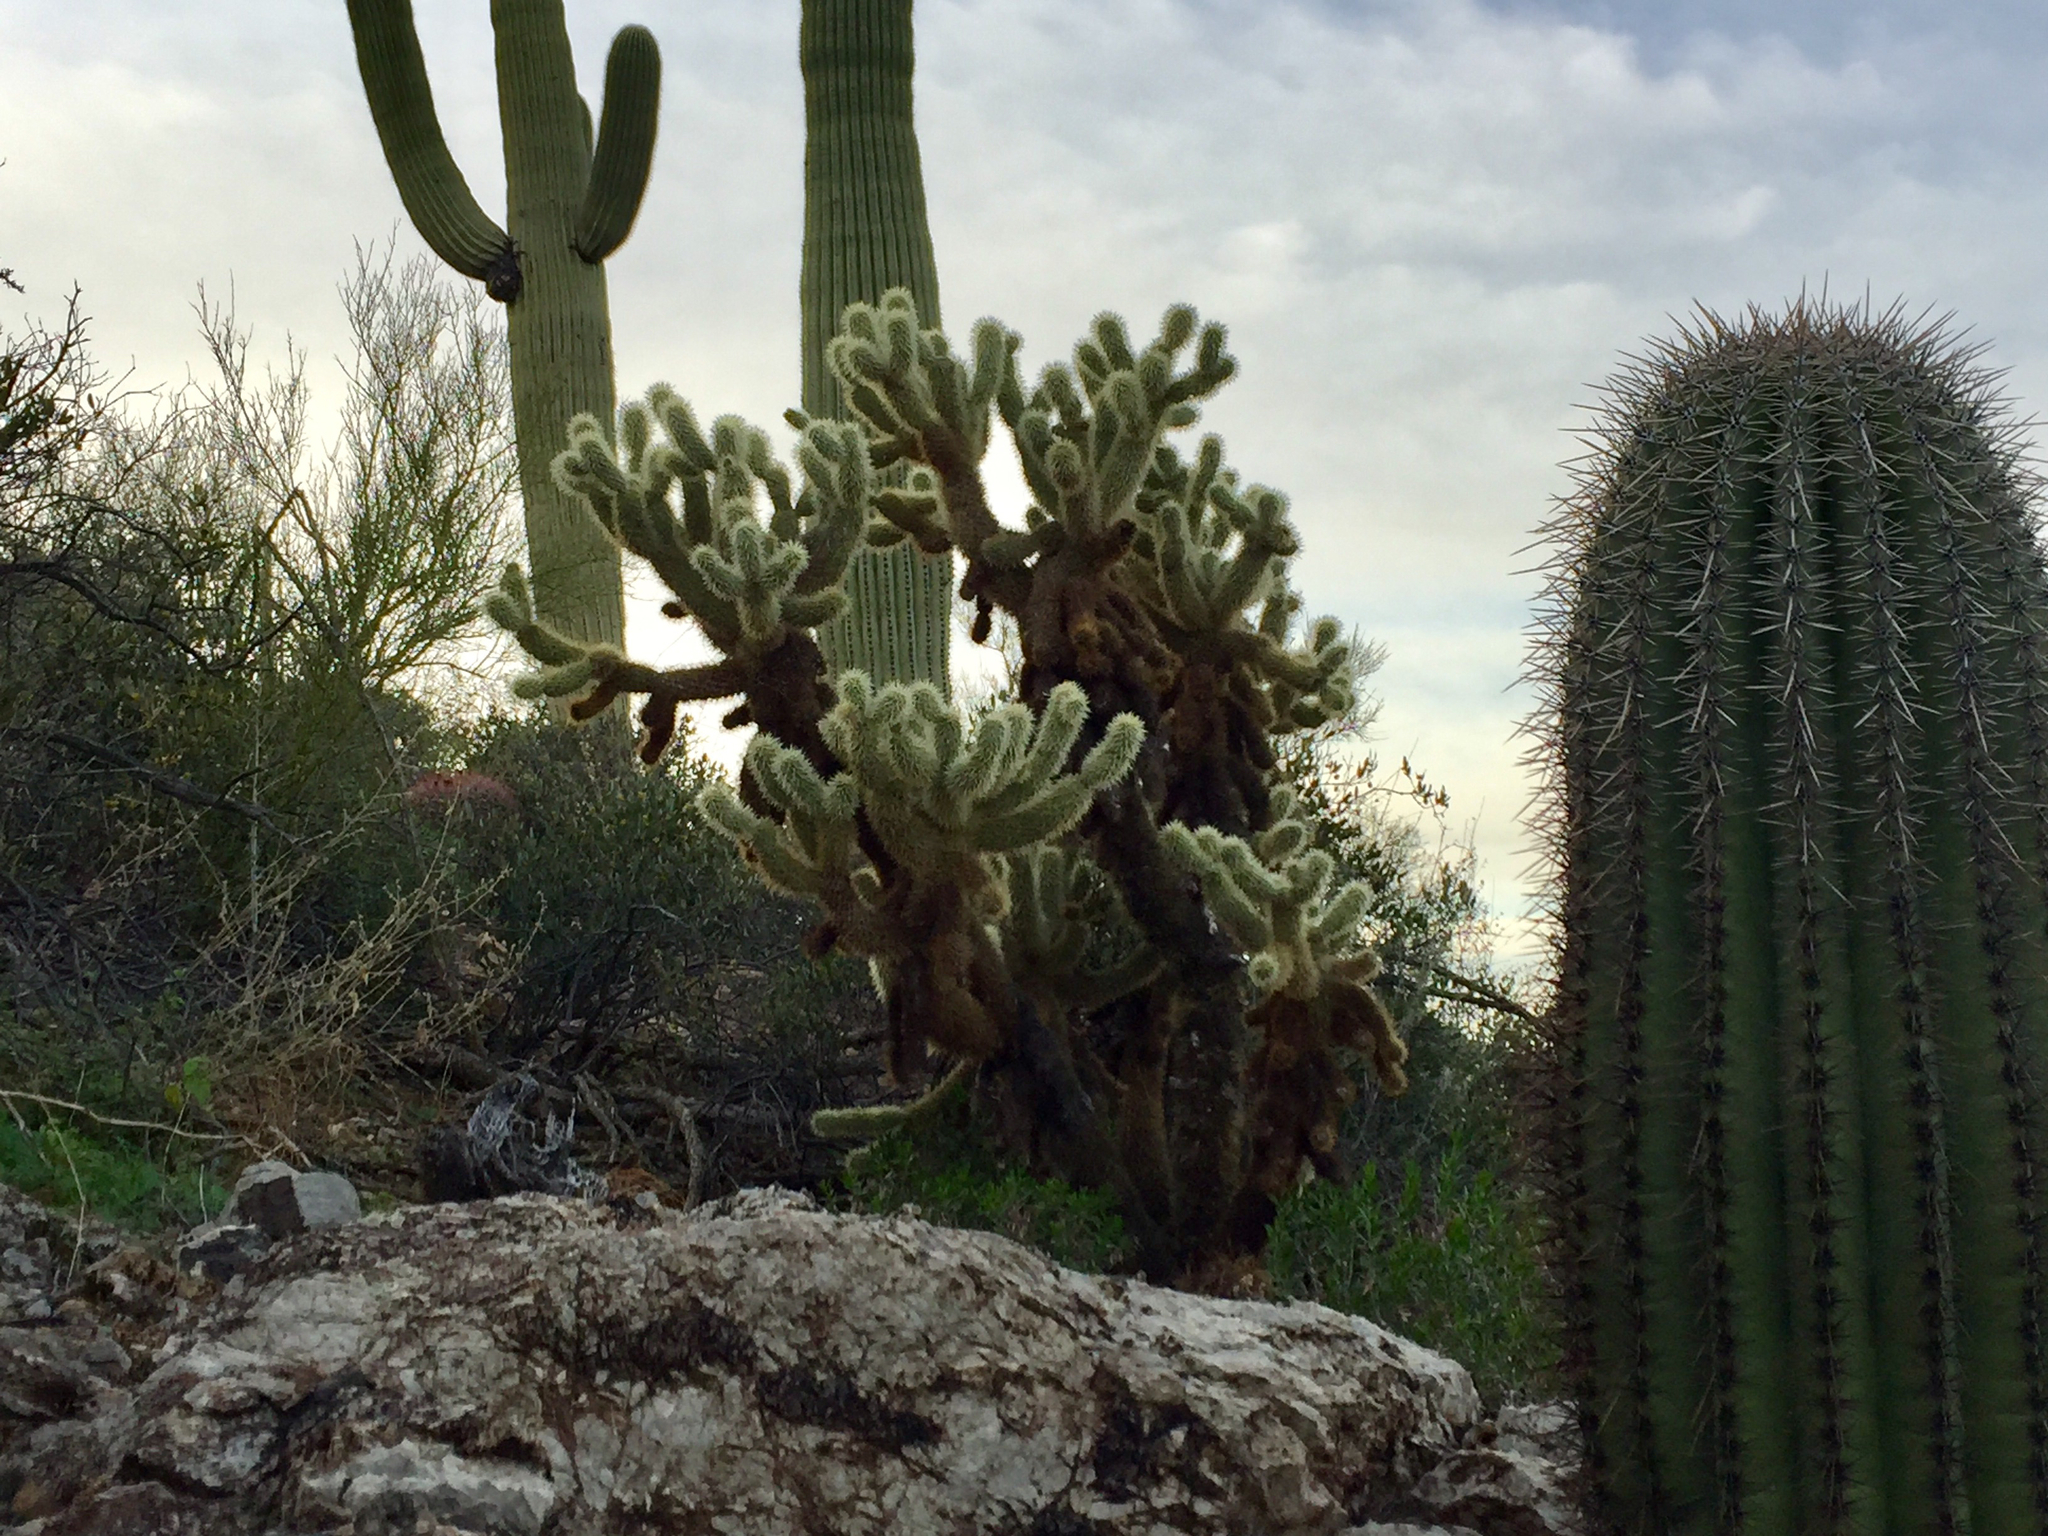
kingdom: Plantae
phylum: Tracheophyta
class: Magnoliopsida
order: Caryophyllales
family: Cactaceae
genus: Cylindropuntia
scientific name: Cylindropuntia fosbergii
